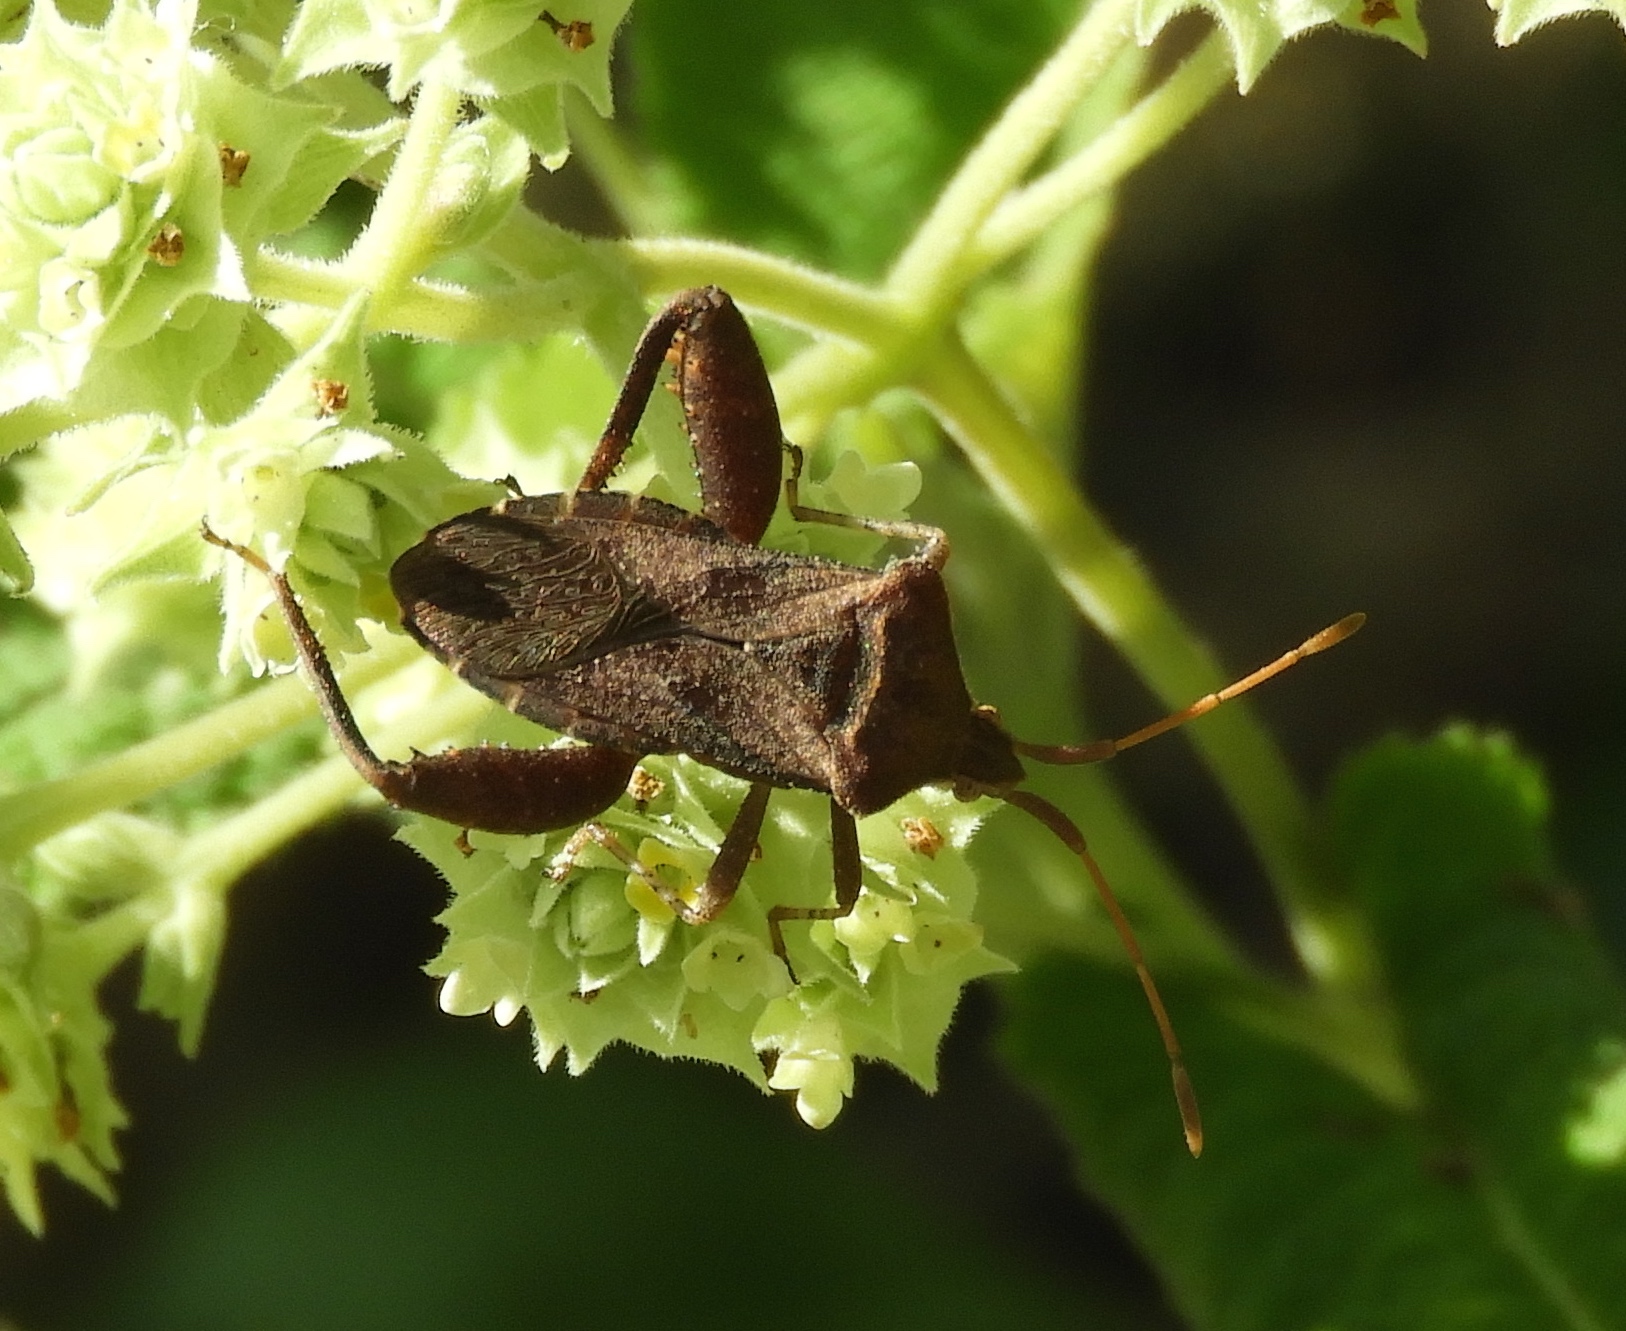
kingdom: Animalia
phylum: Arthropoda
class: Insecta
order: Hemiptera
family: Coreidae
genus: Mamurius
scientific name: Mamurius mopsus
